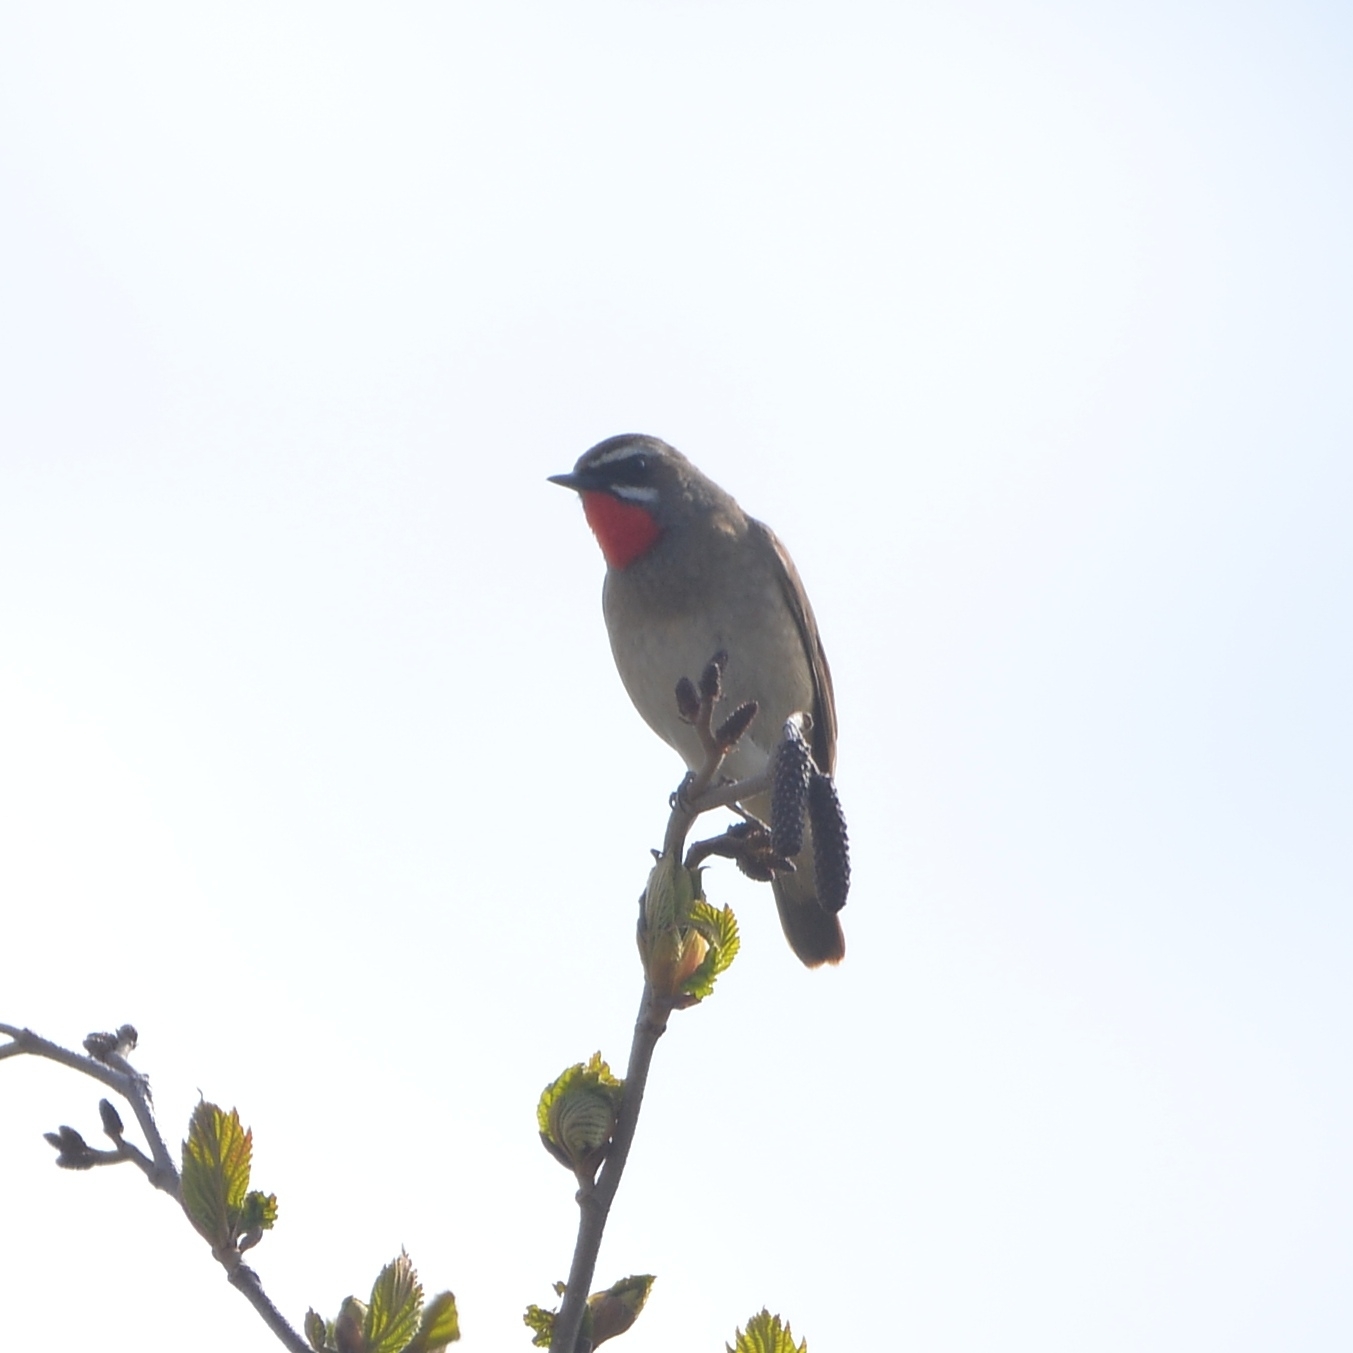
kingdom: Animalia
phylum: Chordata
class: Aves
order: Passeriformes
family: Muscicapidae
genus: Luscinia
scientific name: Luscinia calliope
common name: Siberian rubythroat
